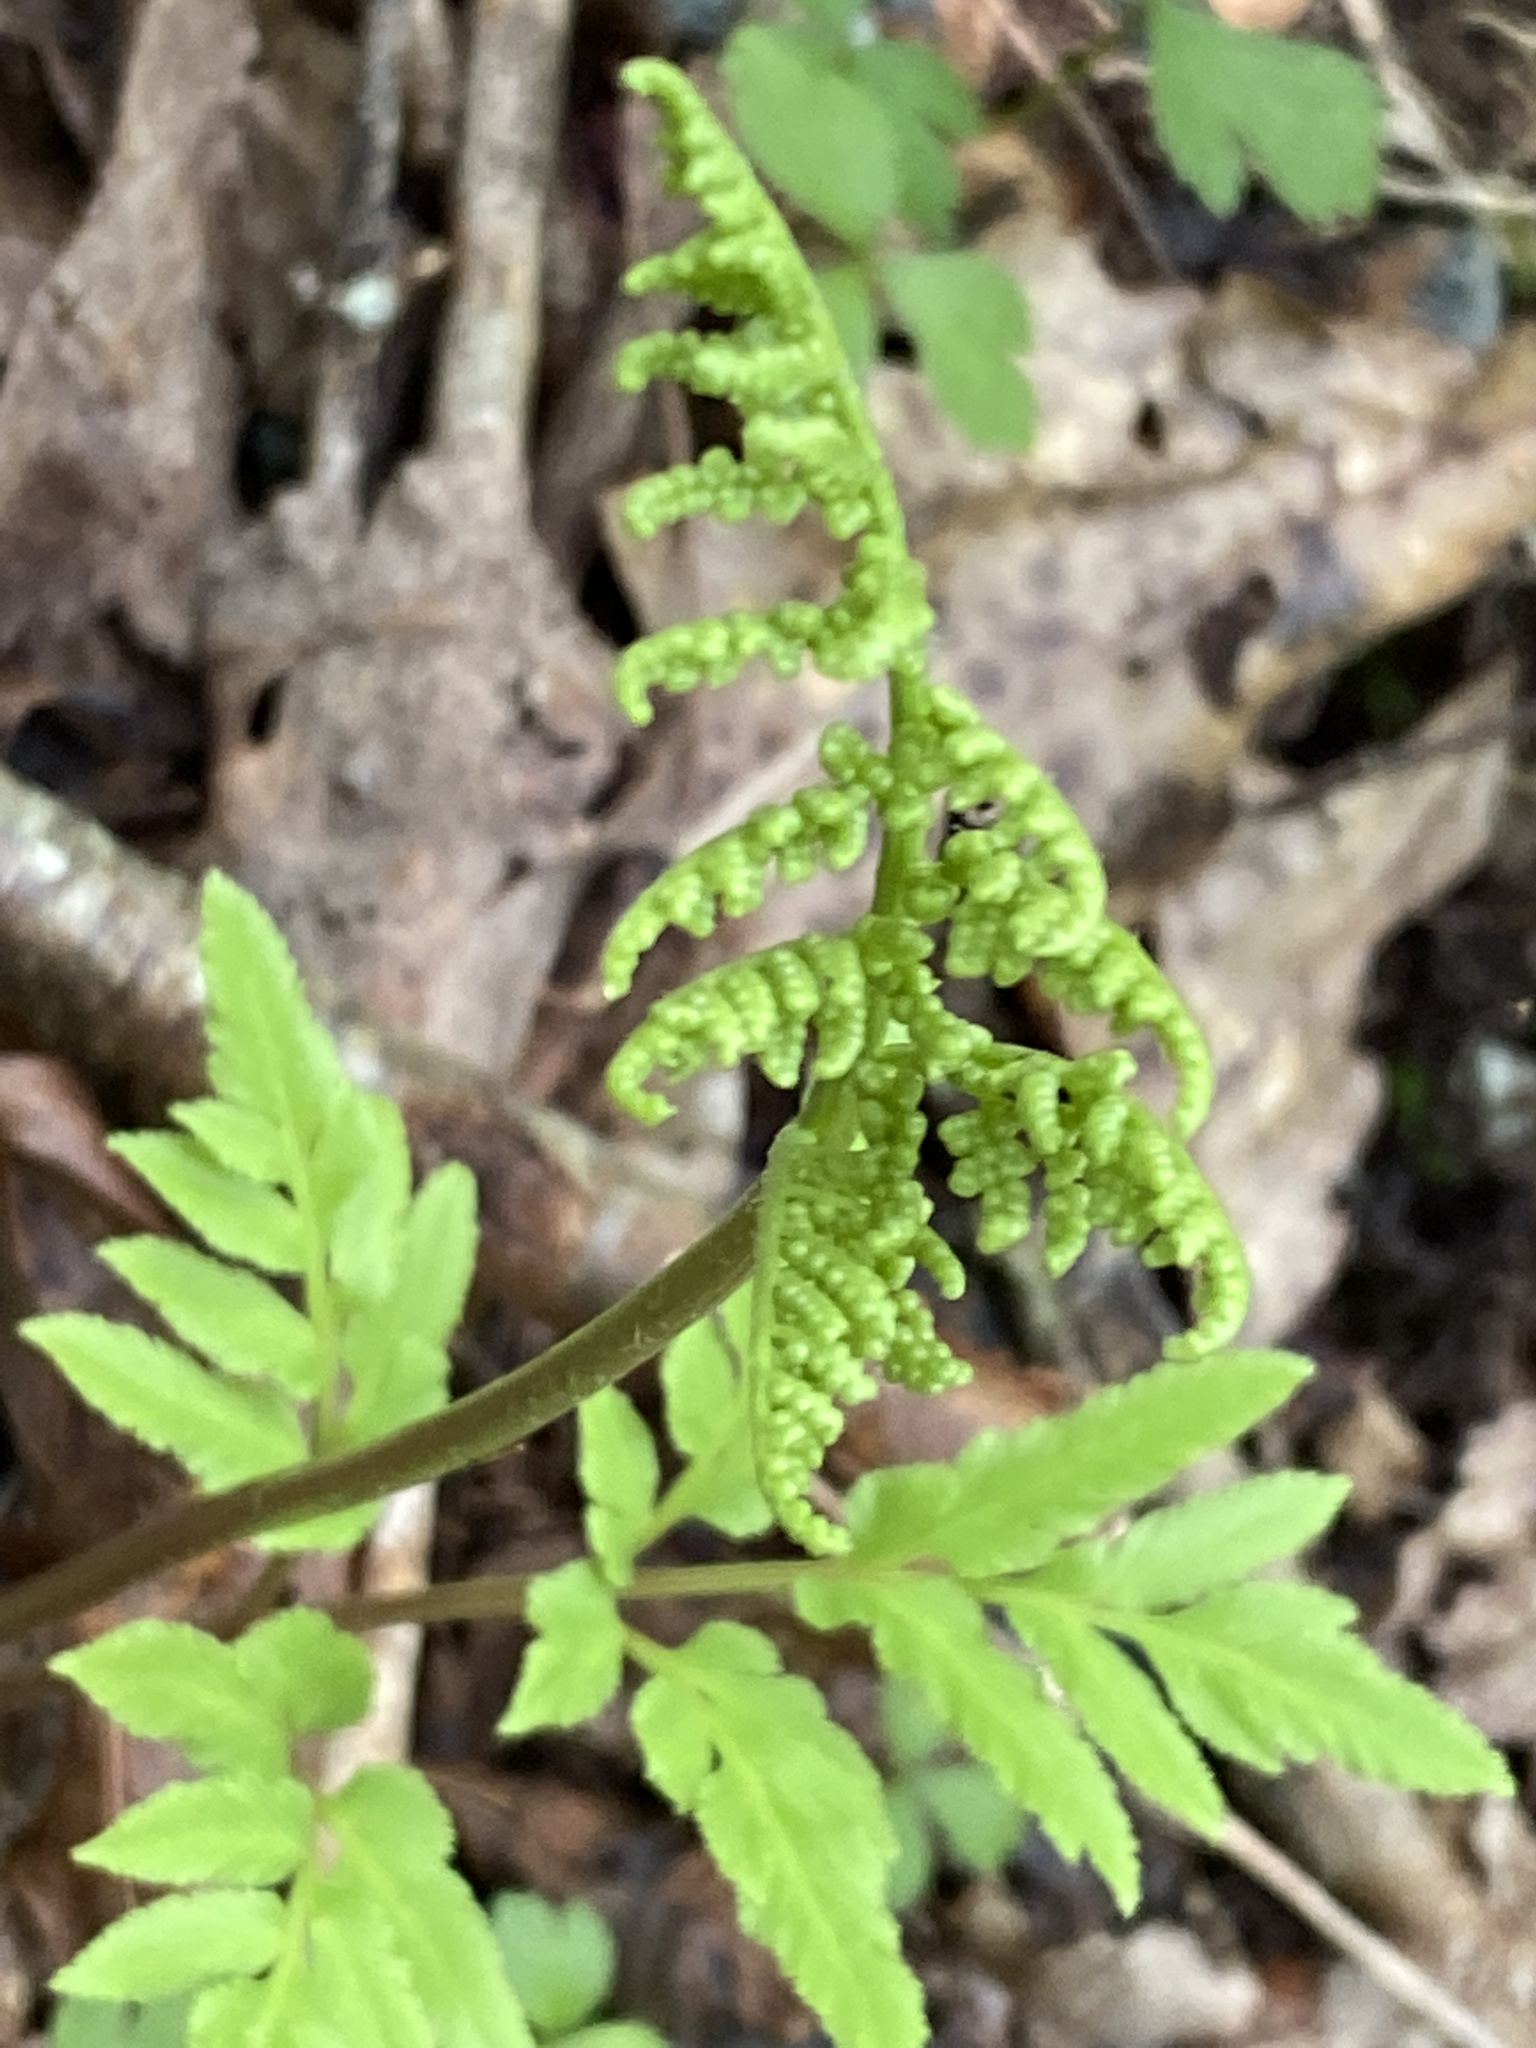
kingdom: Plantae
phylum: Tracheophyta
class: Polypodiopsida
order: Ophioglossales
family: Ophioglossaceae
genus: Sceptridium
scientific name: Sceptridium dissectum
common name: Cut-leaved grapefern
